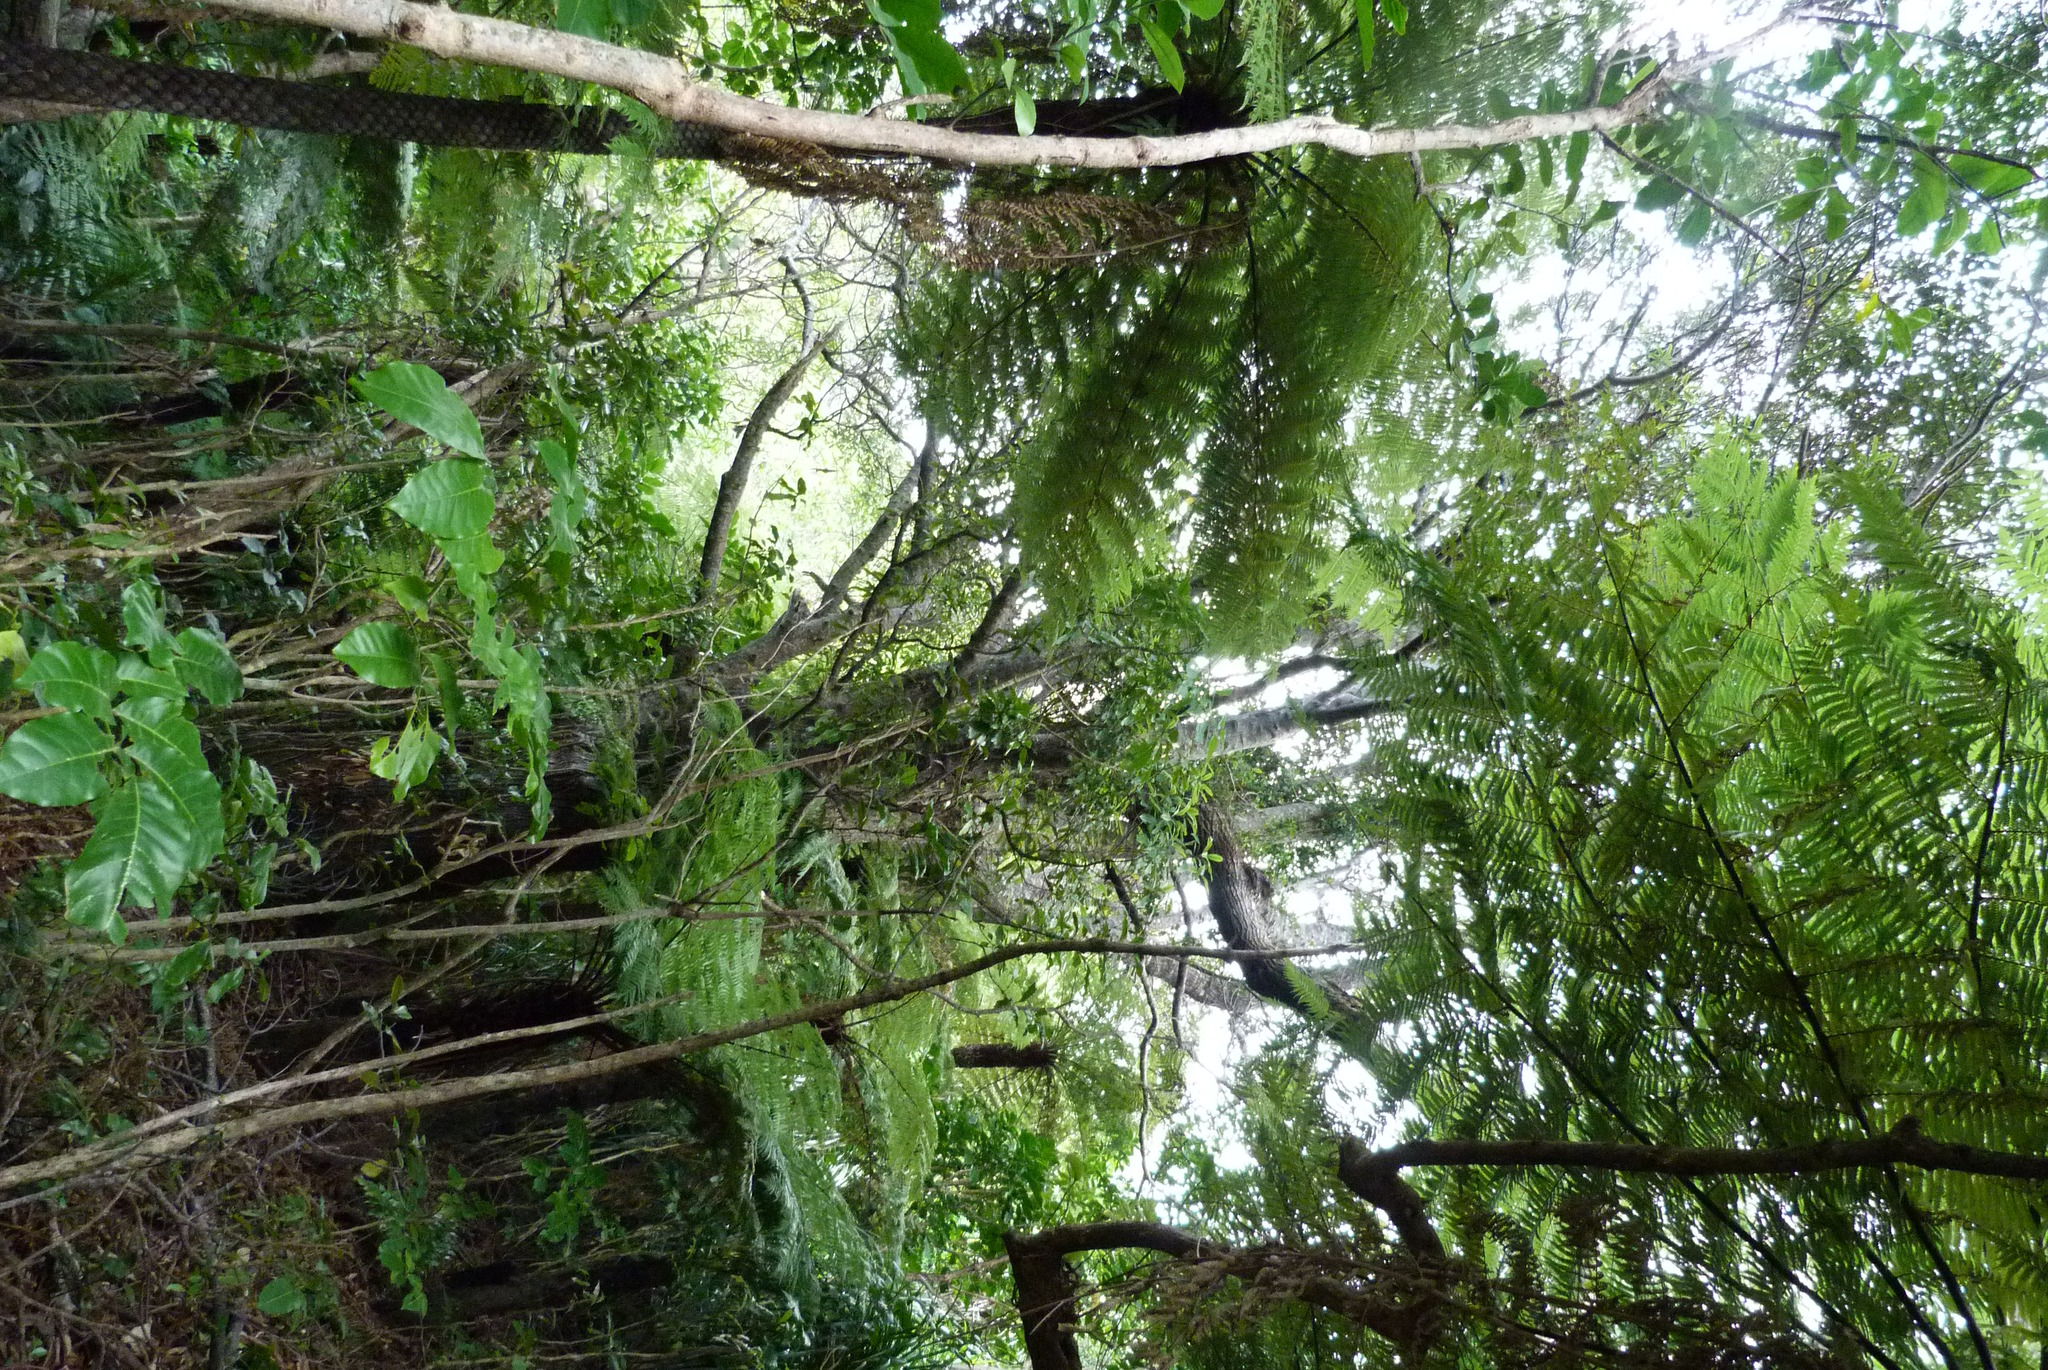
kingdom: Plantae
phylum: Tracheophyta
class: Magnoliopsida
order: Sapindales
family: Meliaceae
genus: Didymocheton
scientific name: Didymocheton spectabilis
